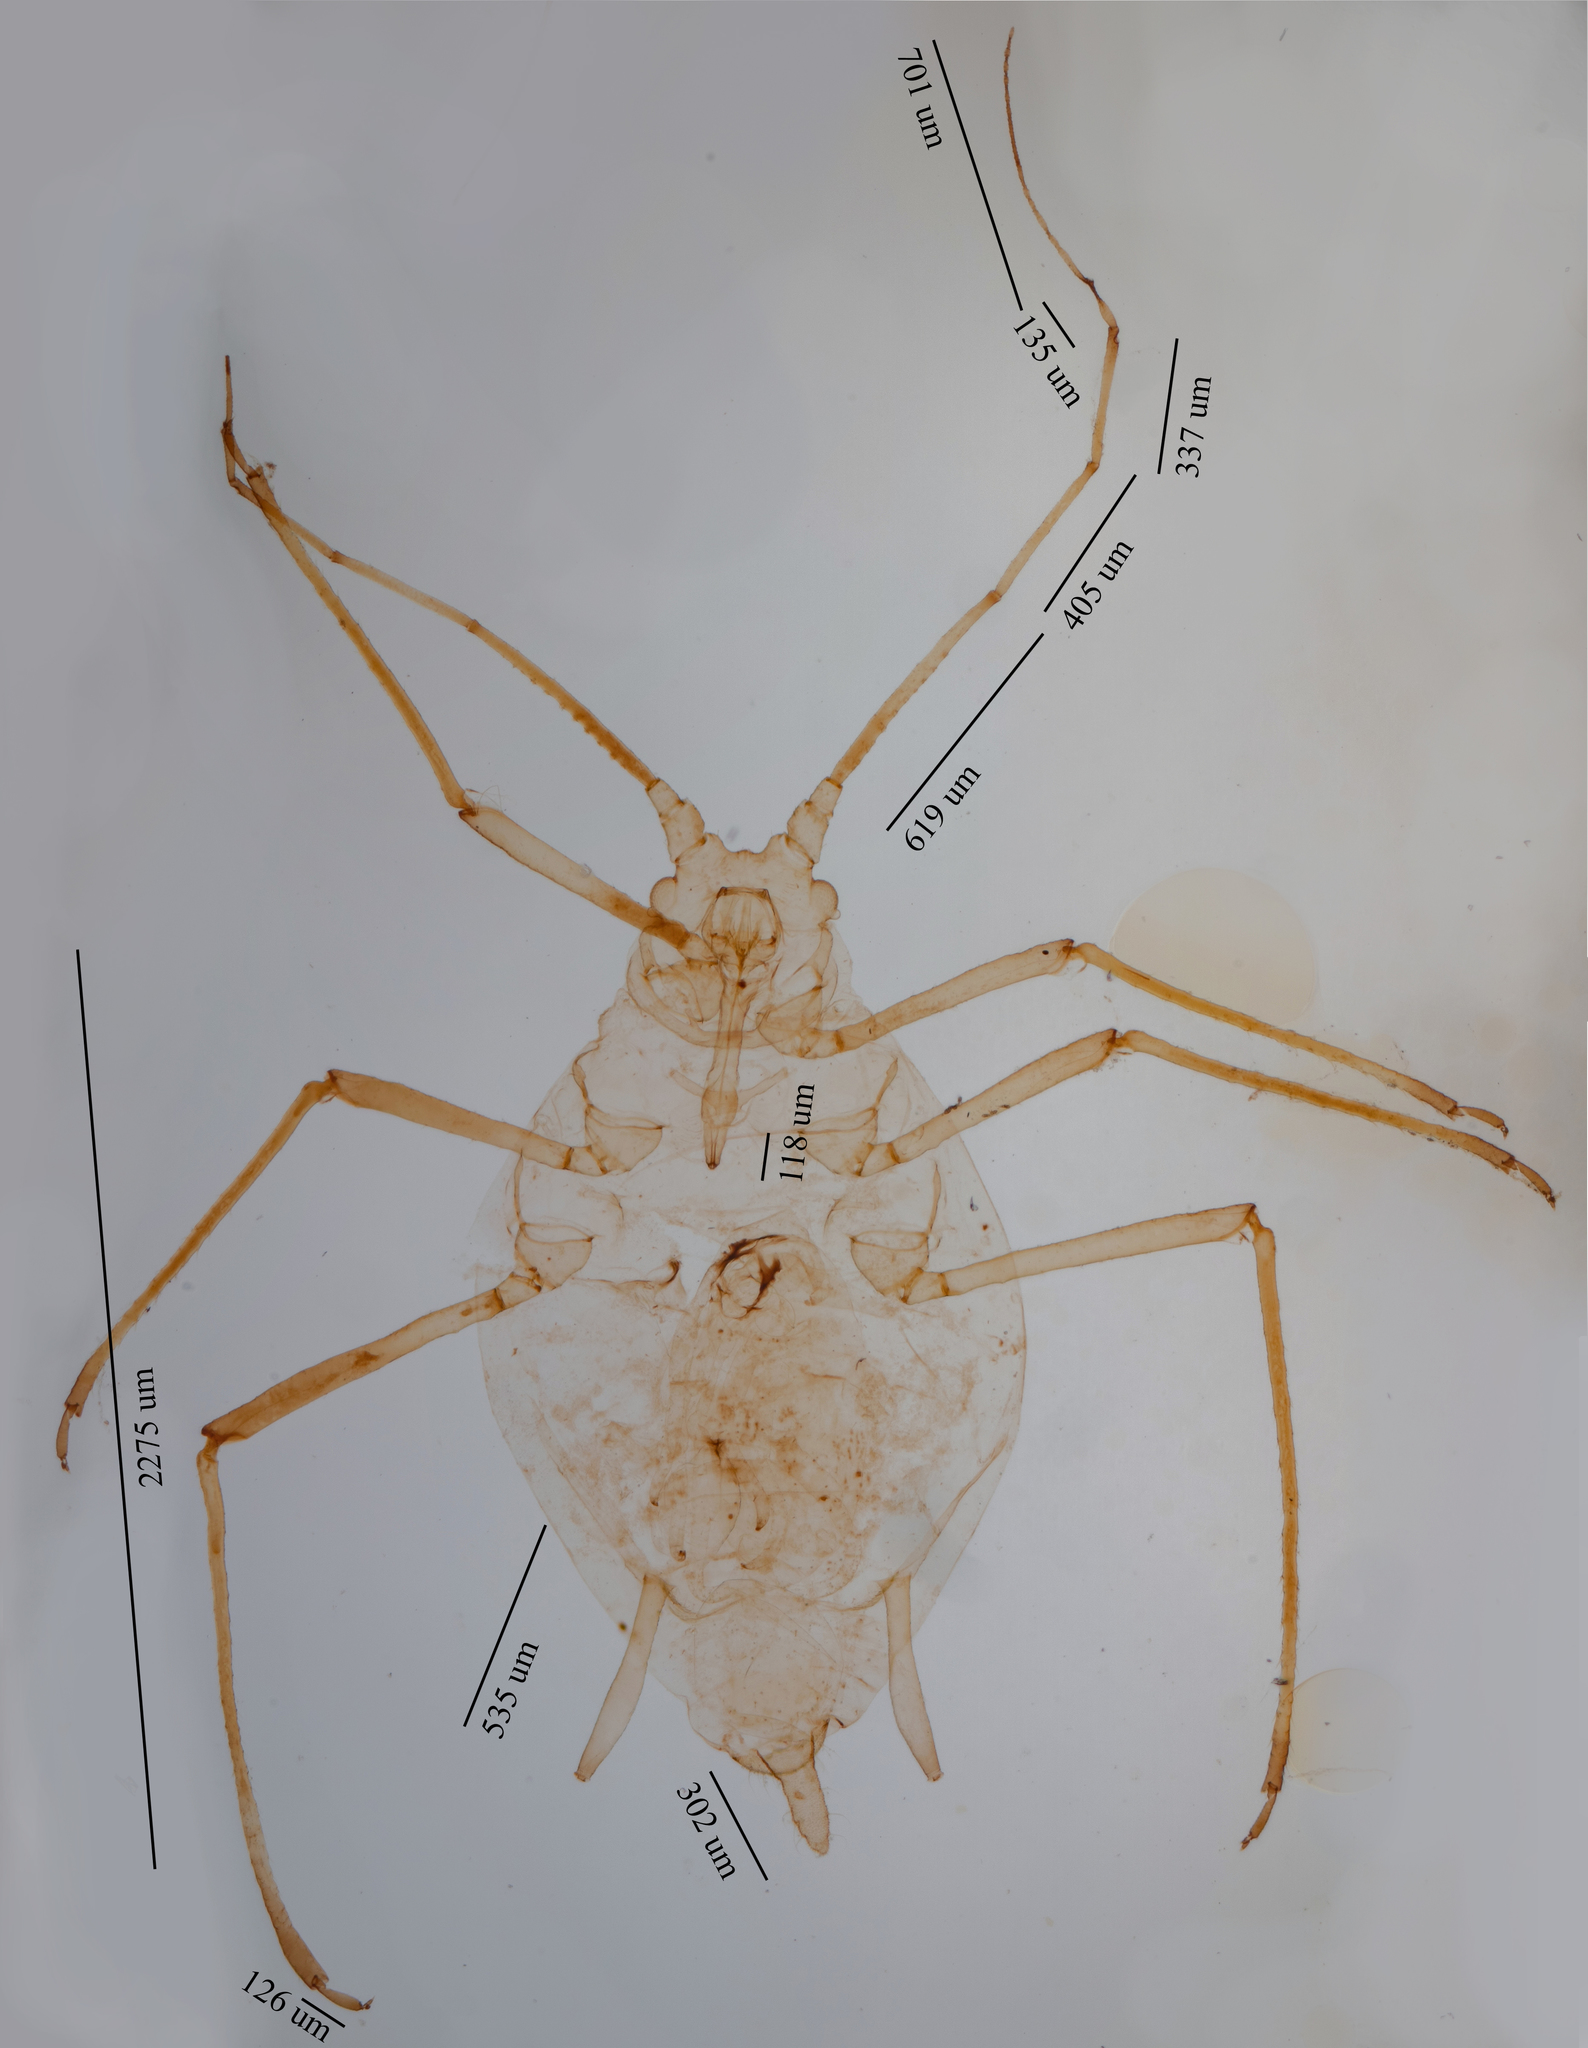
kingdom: Animalia
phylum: Arthropoda
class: Insecta
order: Hemiptera
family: Aphididae
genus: Hyperomyzus
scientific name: Hyperomyzus lactucae
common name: Sow thistle aphid
